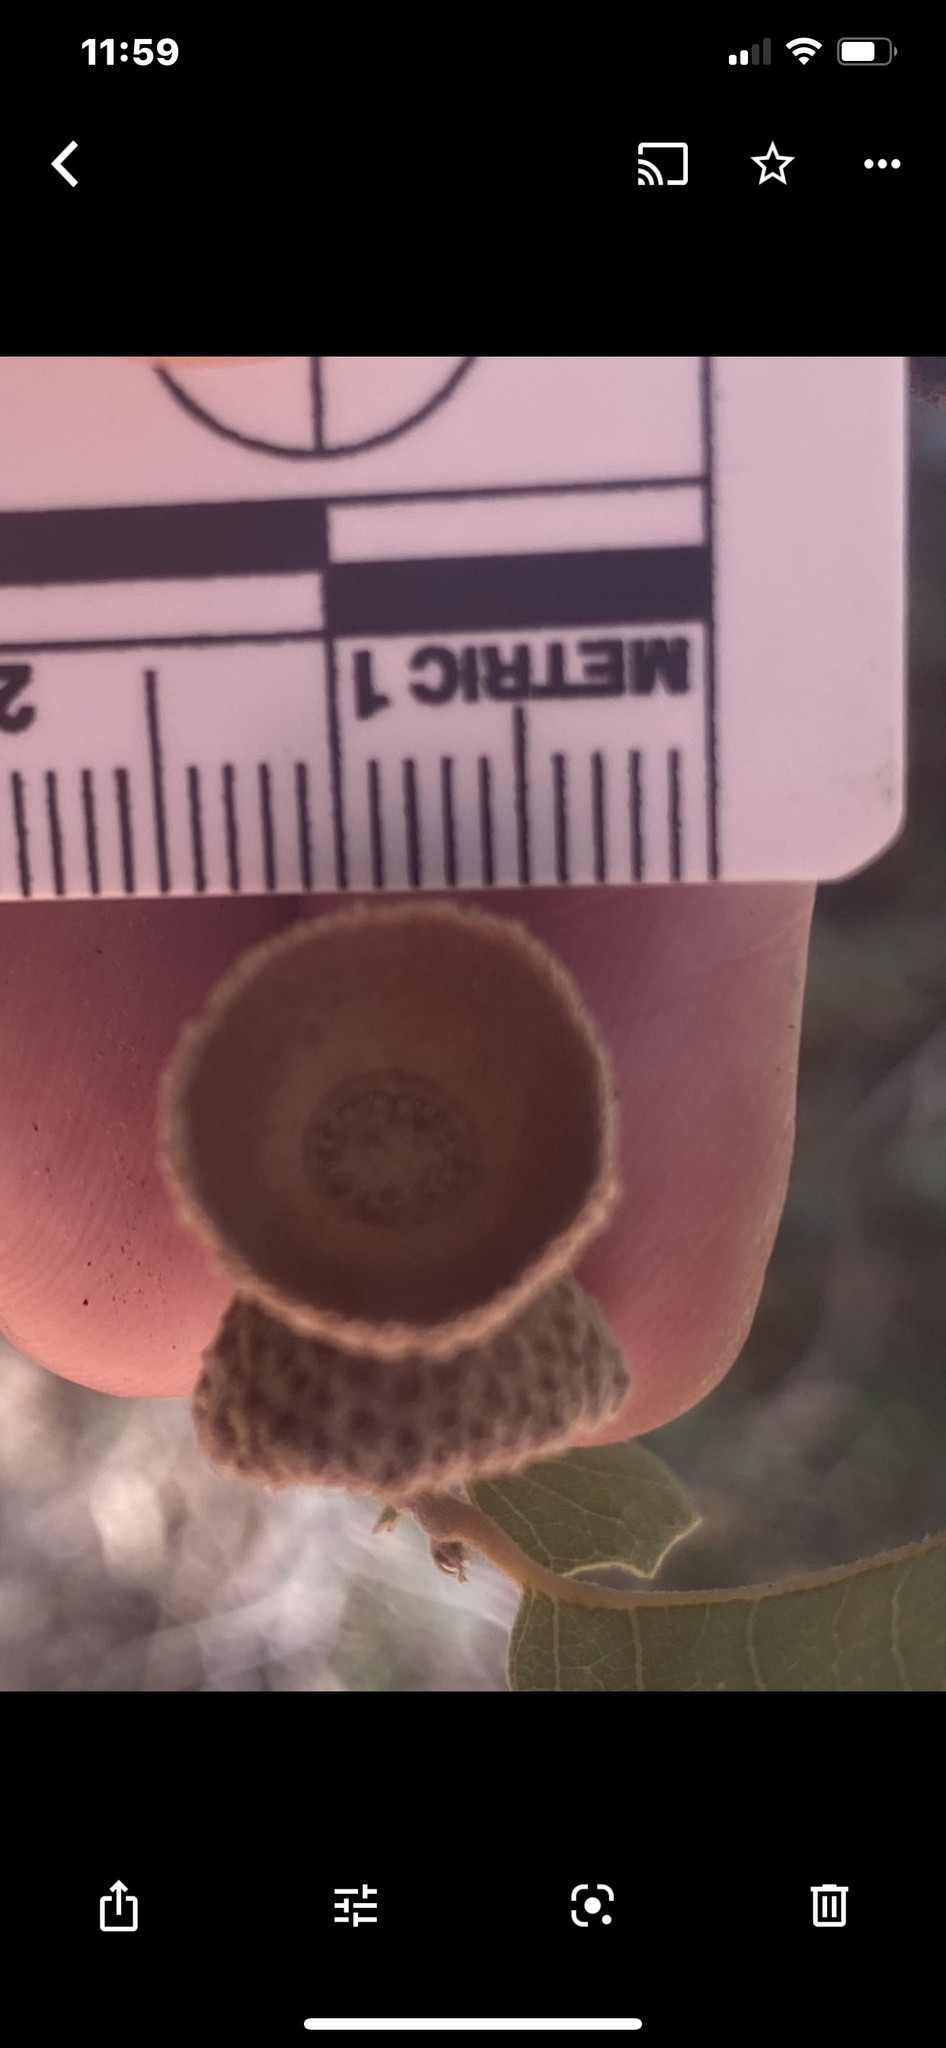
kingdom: Plantae
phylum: Tracheophyta
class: Magnoliopsida
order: Fagales
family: Fagaceae
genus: Quercus
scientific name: Quercus turbinella
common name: Sonoran scrub oak
